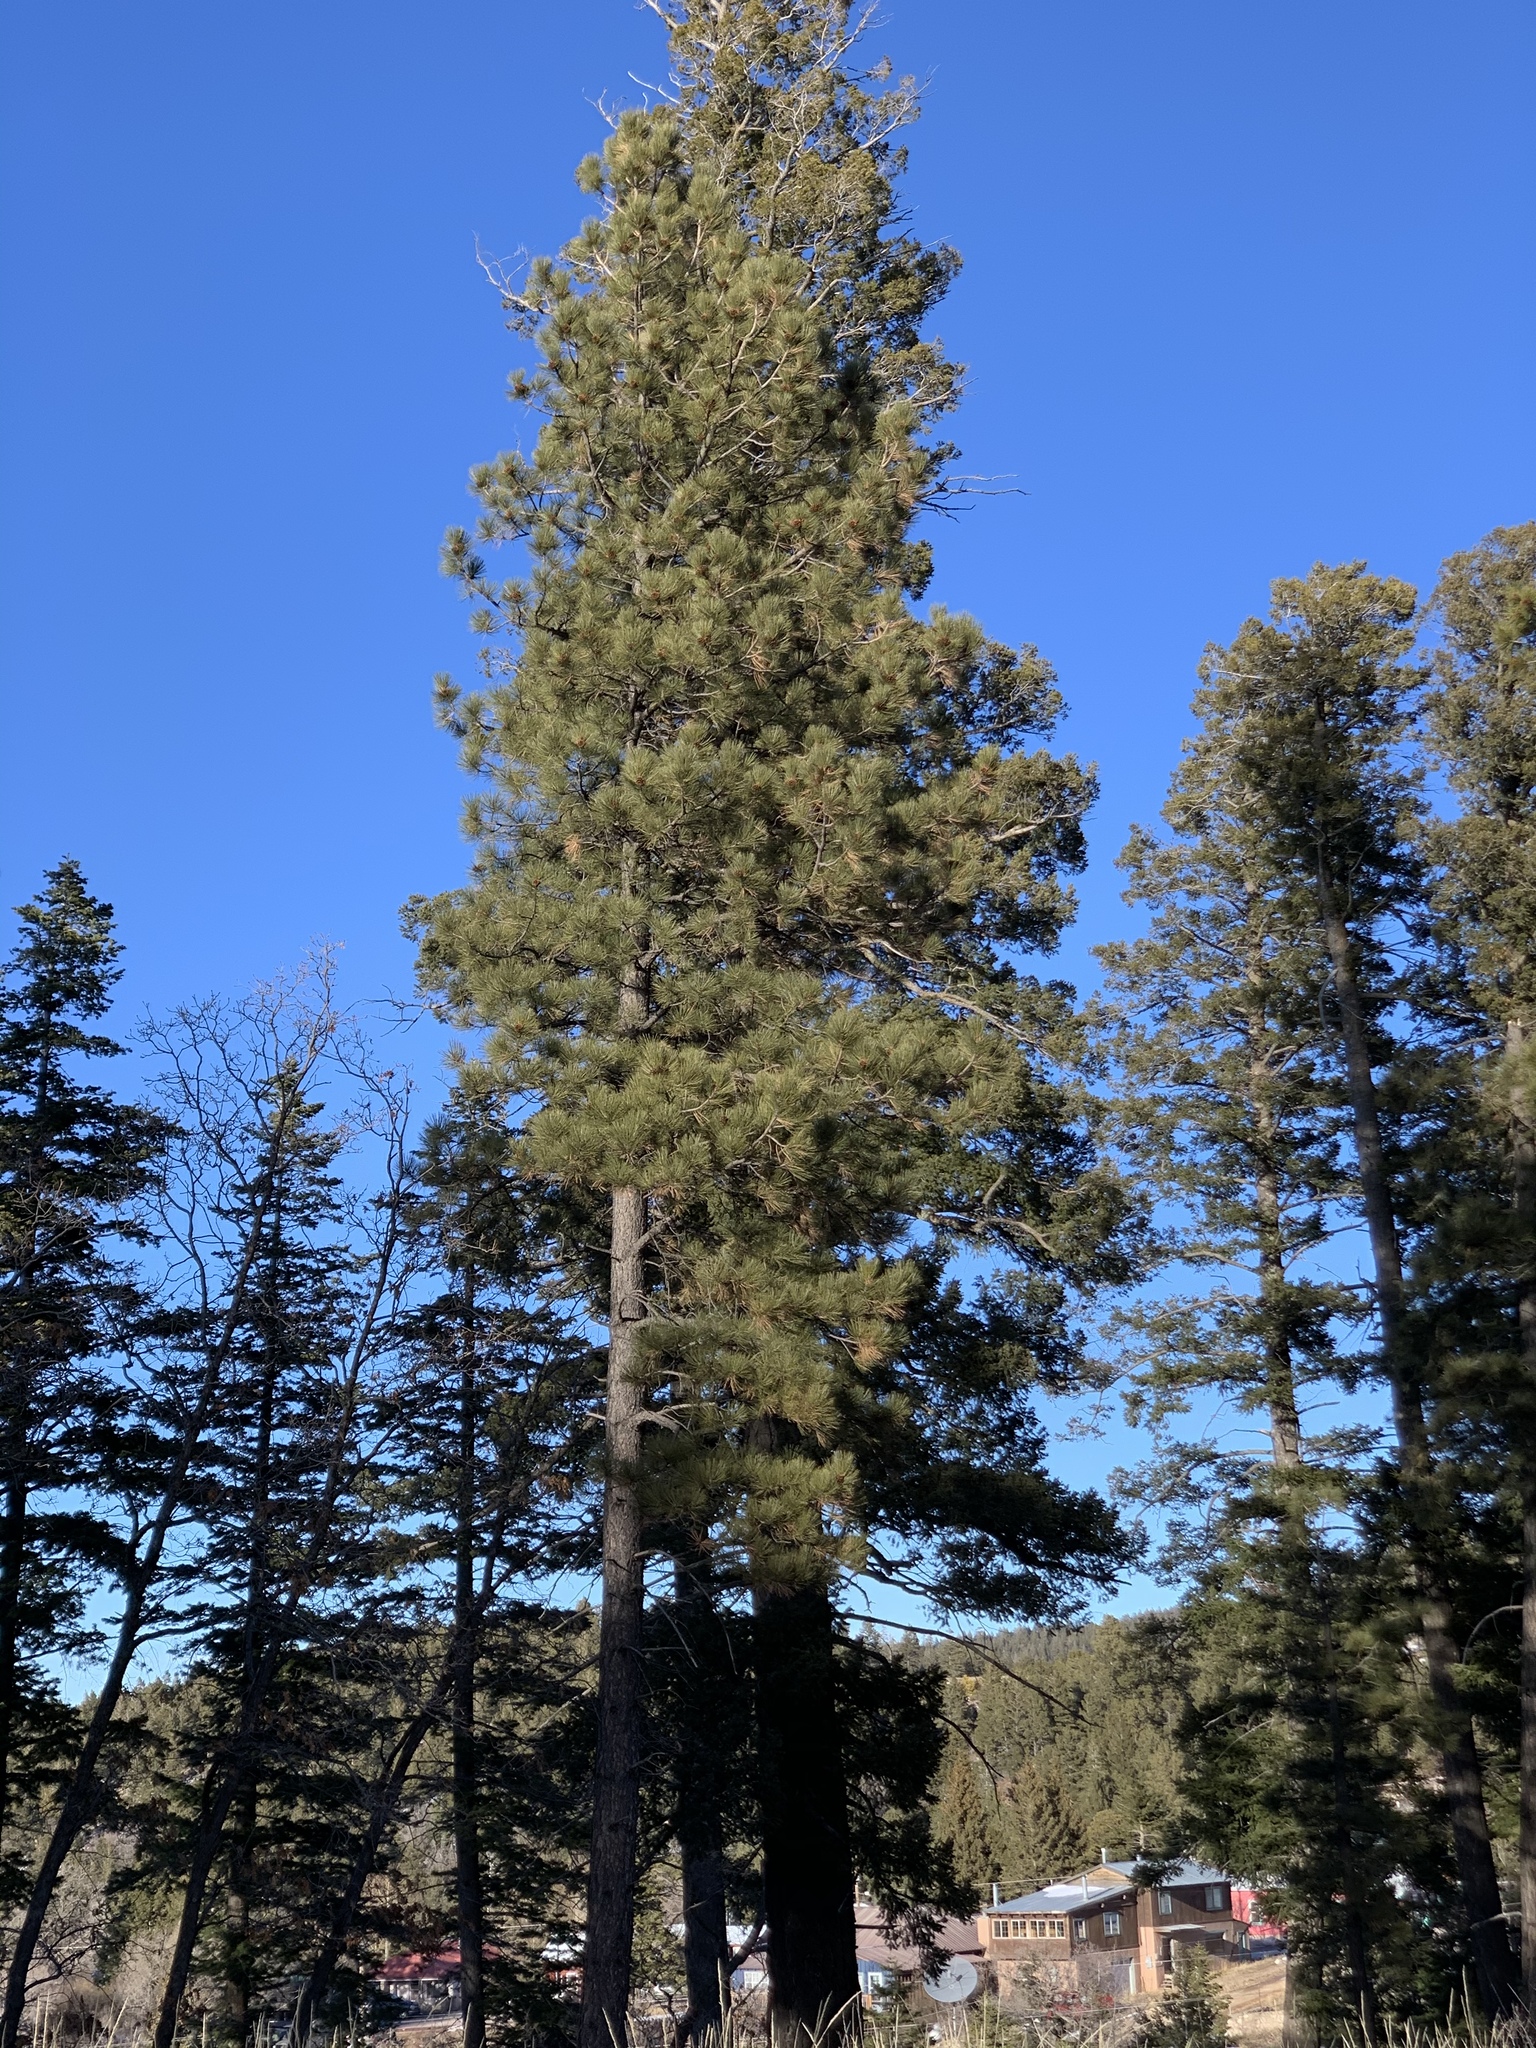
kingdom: Plantae
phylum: Tracheophyta
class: Pinopsida
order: Pinales
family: Pinaceae
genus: Pinus
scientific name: Pinus ponderosa
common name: Western yellow-pine
